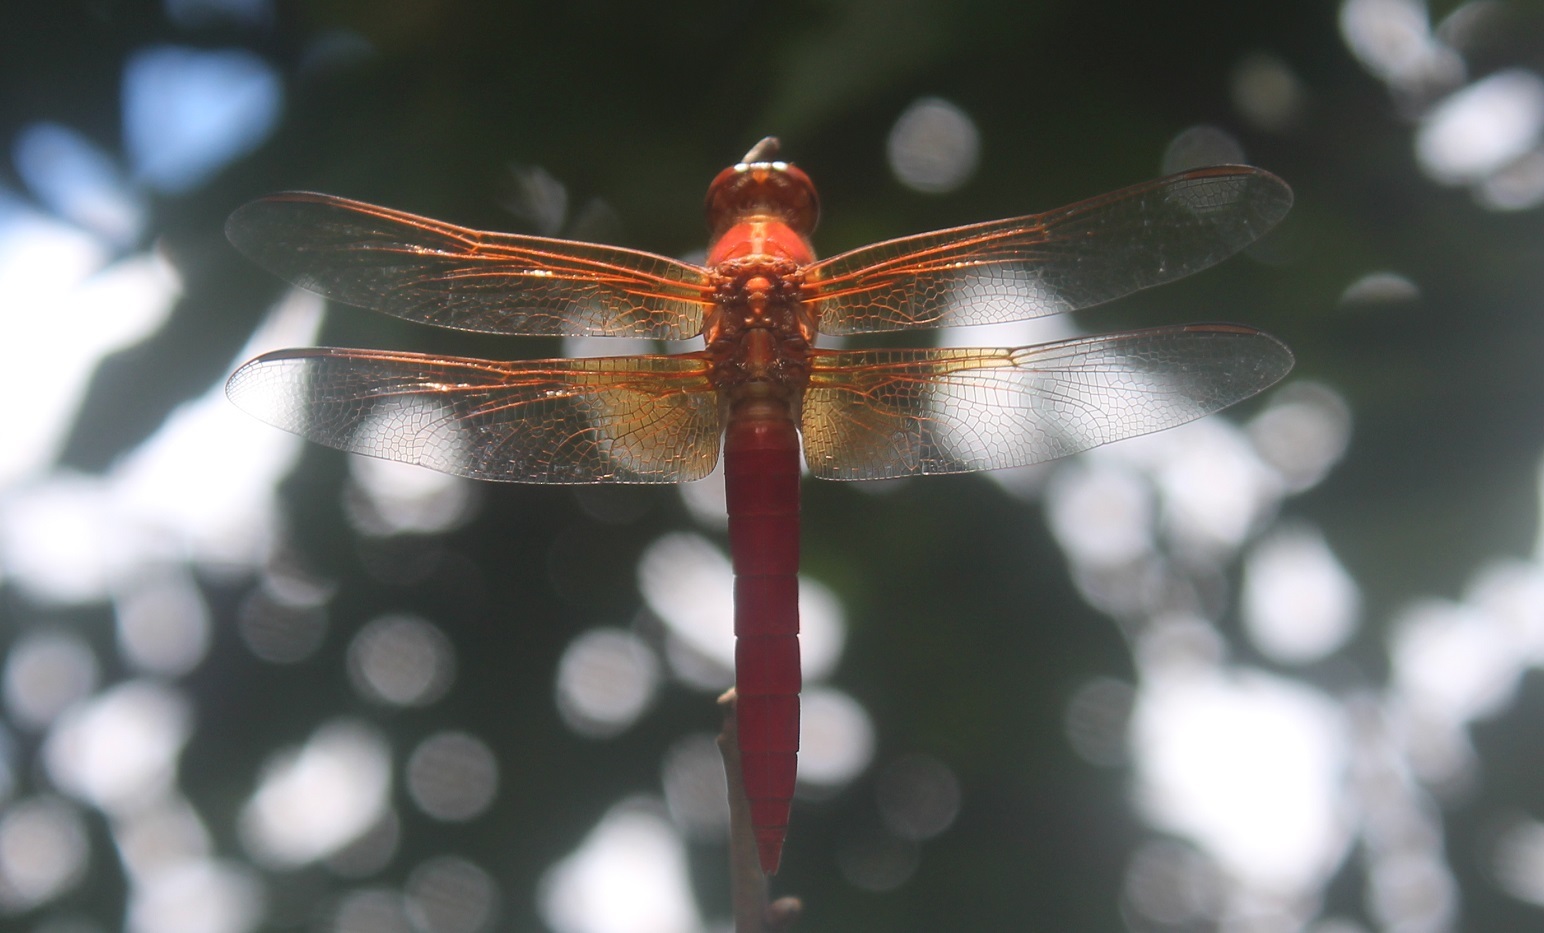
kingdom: Animalia
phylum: Arthropoda
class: Insecta
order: Odonata
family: Libellulidae
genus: Libellula
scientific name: Libellula croceipennis
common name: Neon skimmer
